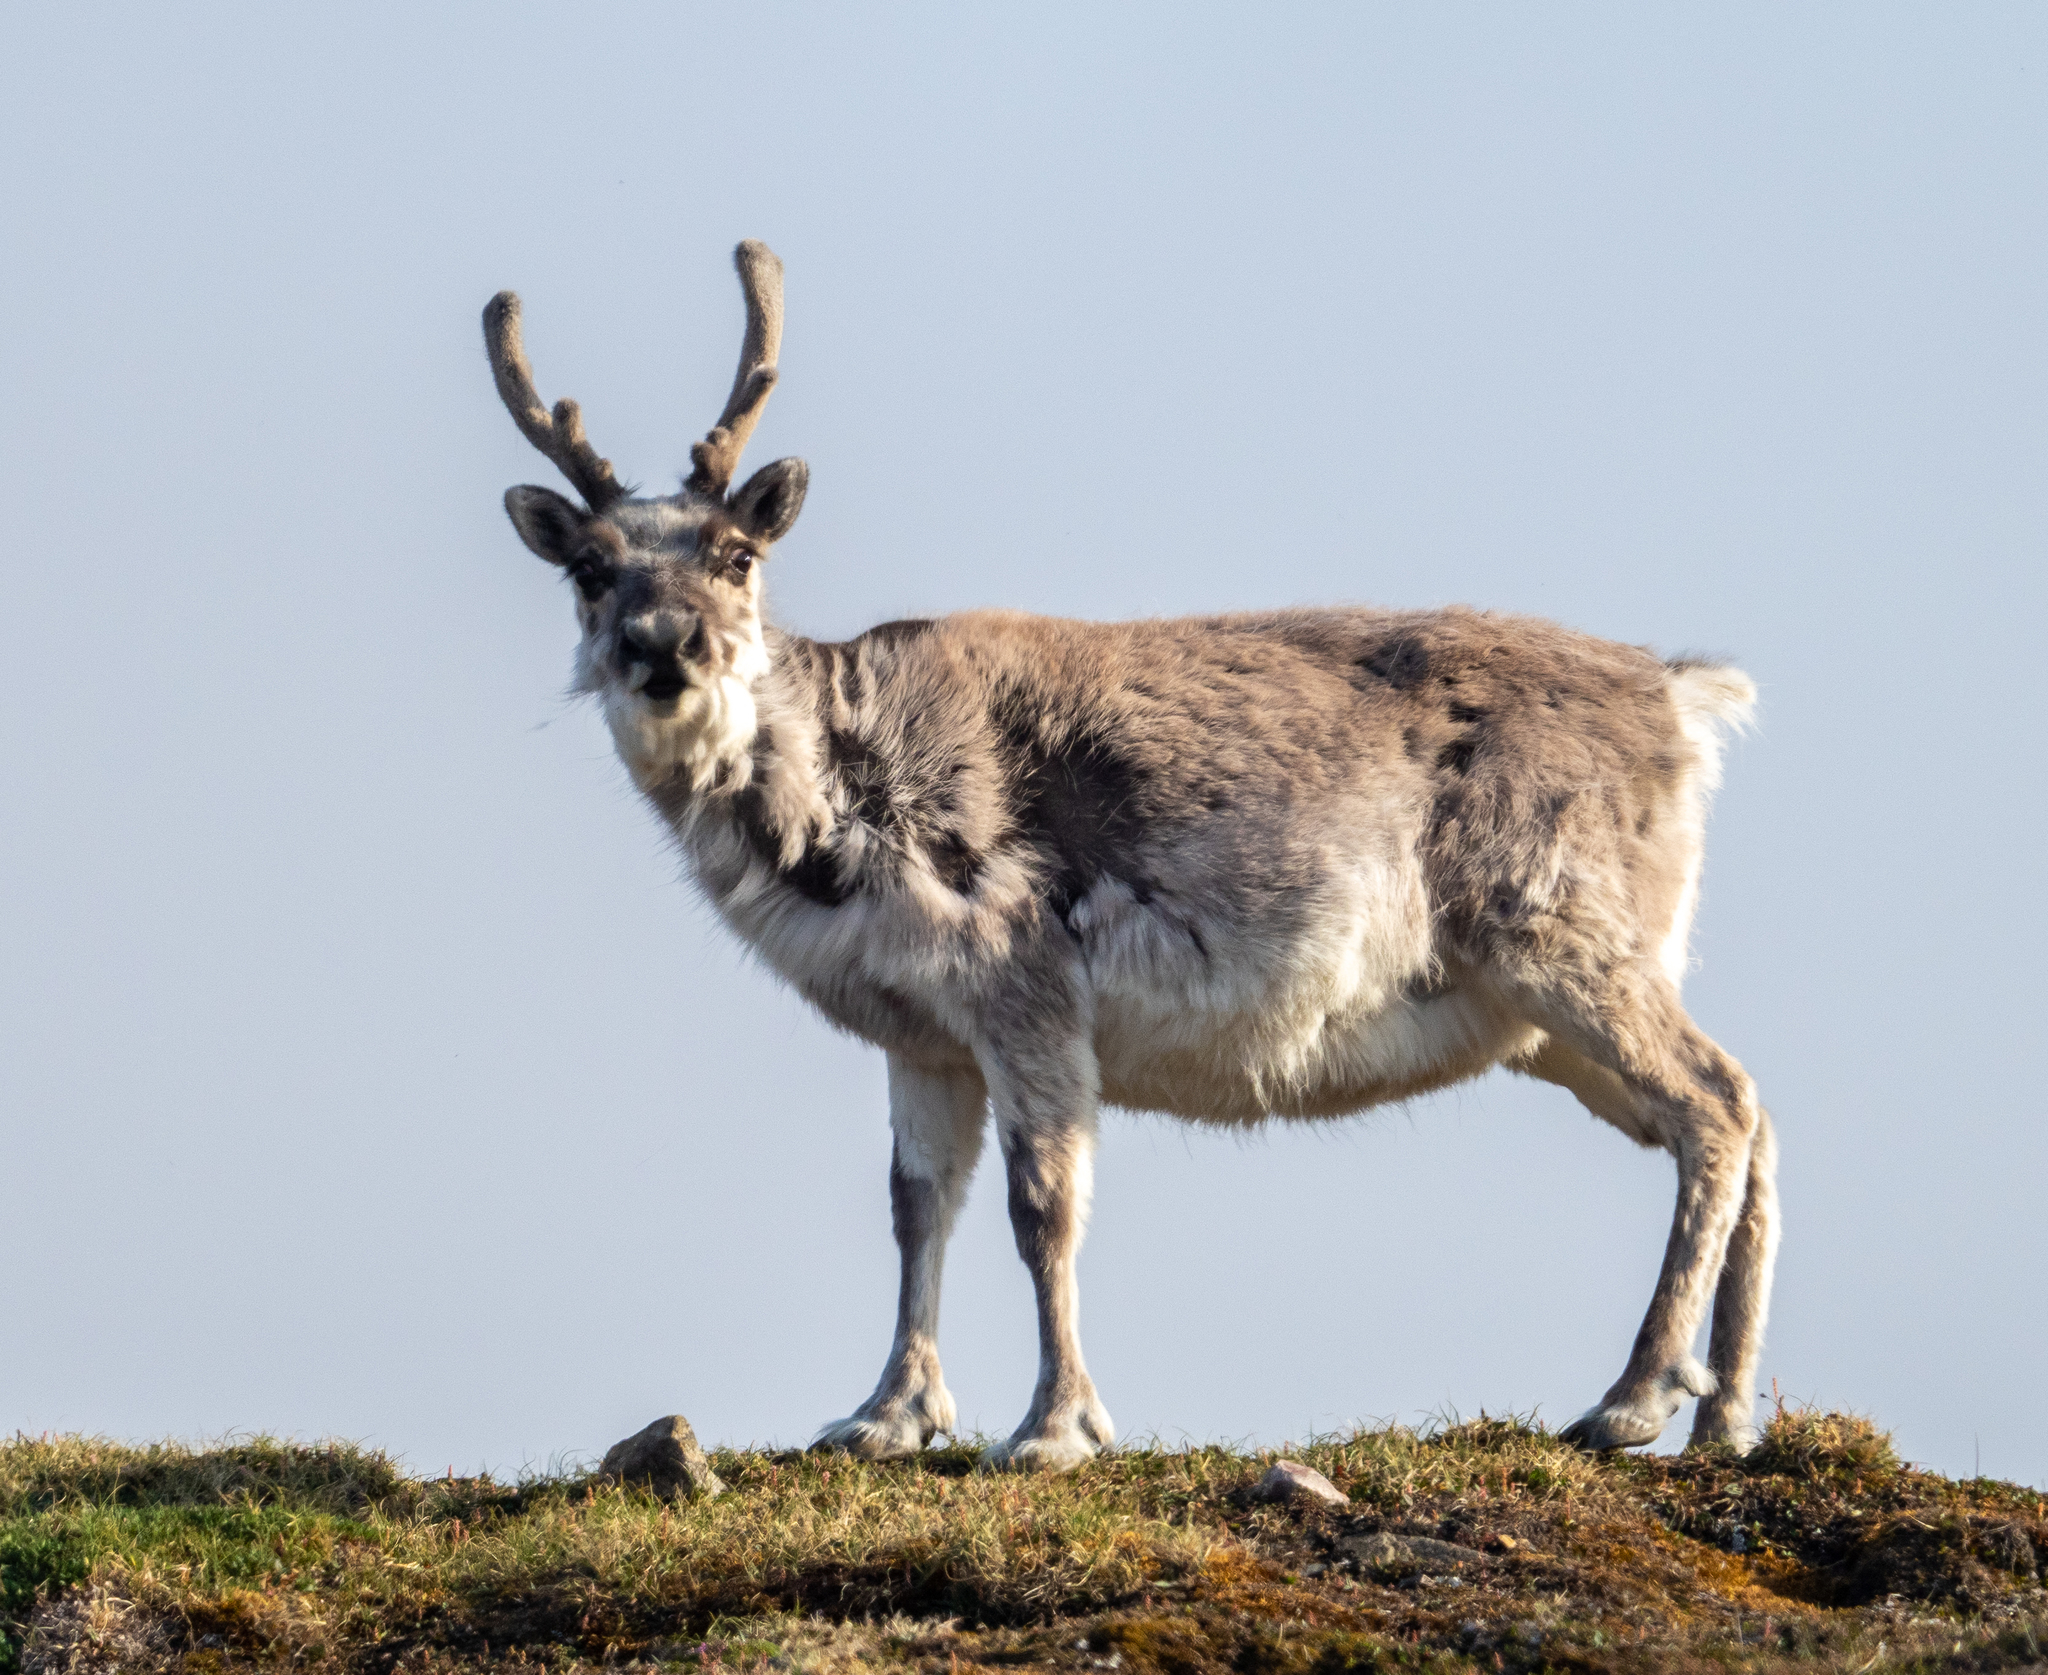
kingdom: Animalia
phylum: Chordata
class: Mammalia
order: Artiodactyla
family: Cervidae
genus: Rangifer
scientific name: Rangifer tarandus
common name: Reindeer
